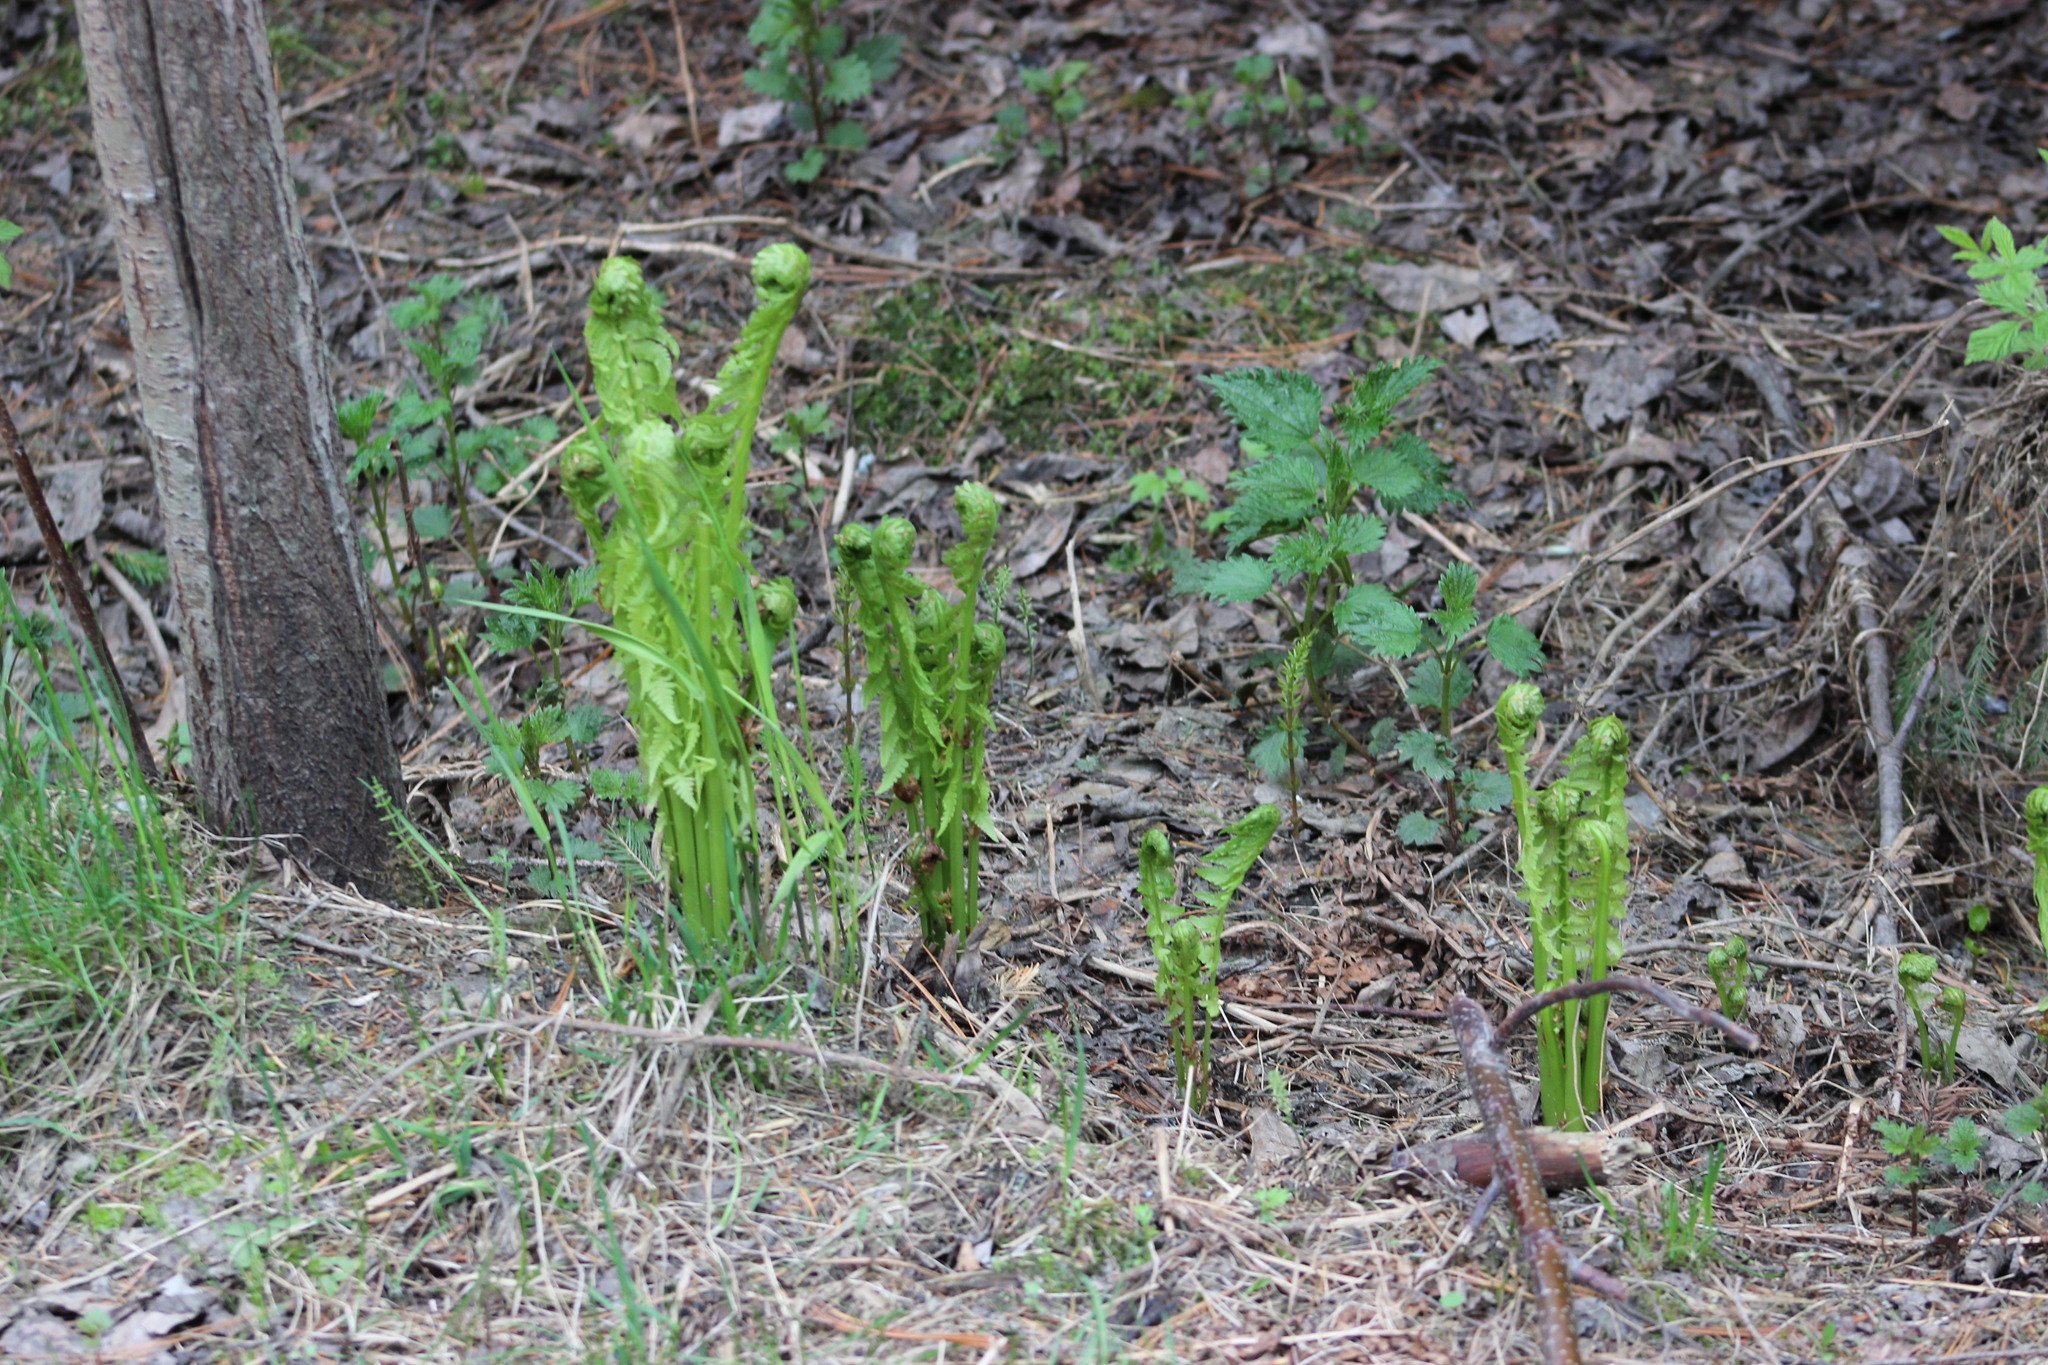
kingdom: Plantae
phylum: Tracheophyta
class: Polypodiopsida
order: Polypodiales
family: Onocleaceae
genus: Matteuccia
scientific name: Matteuccia struthiopteris
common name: Ostrich fern
